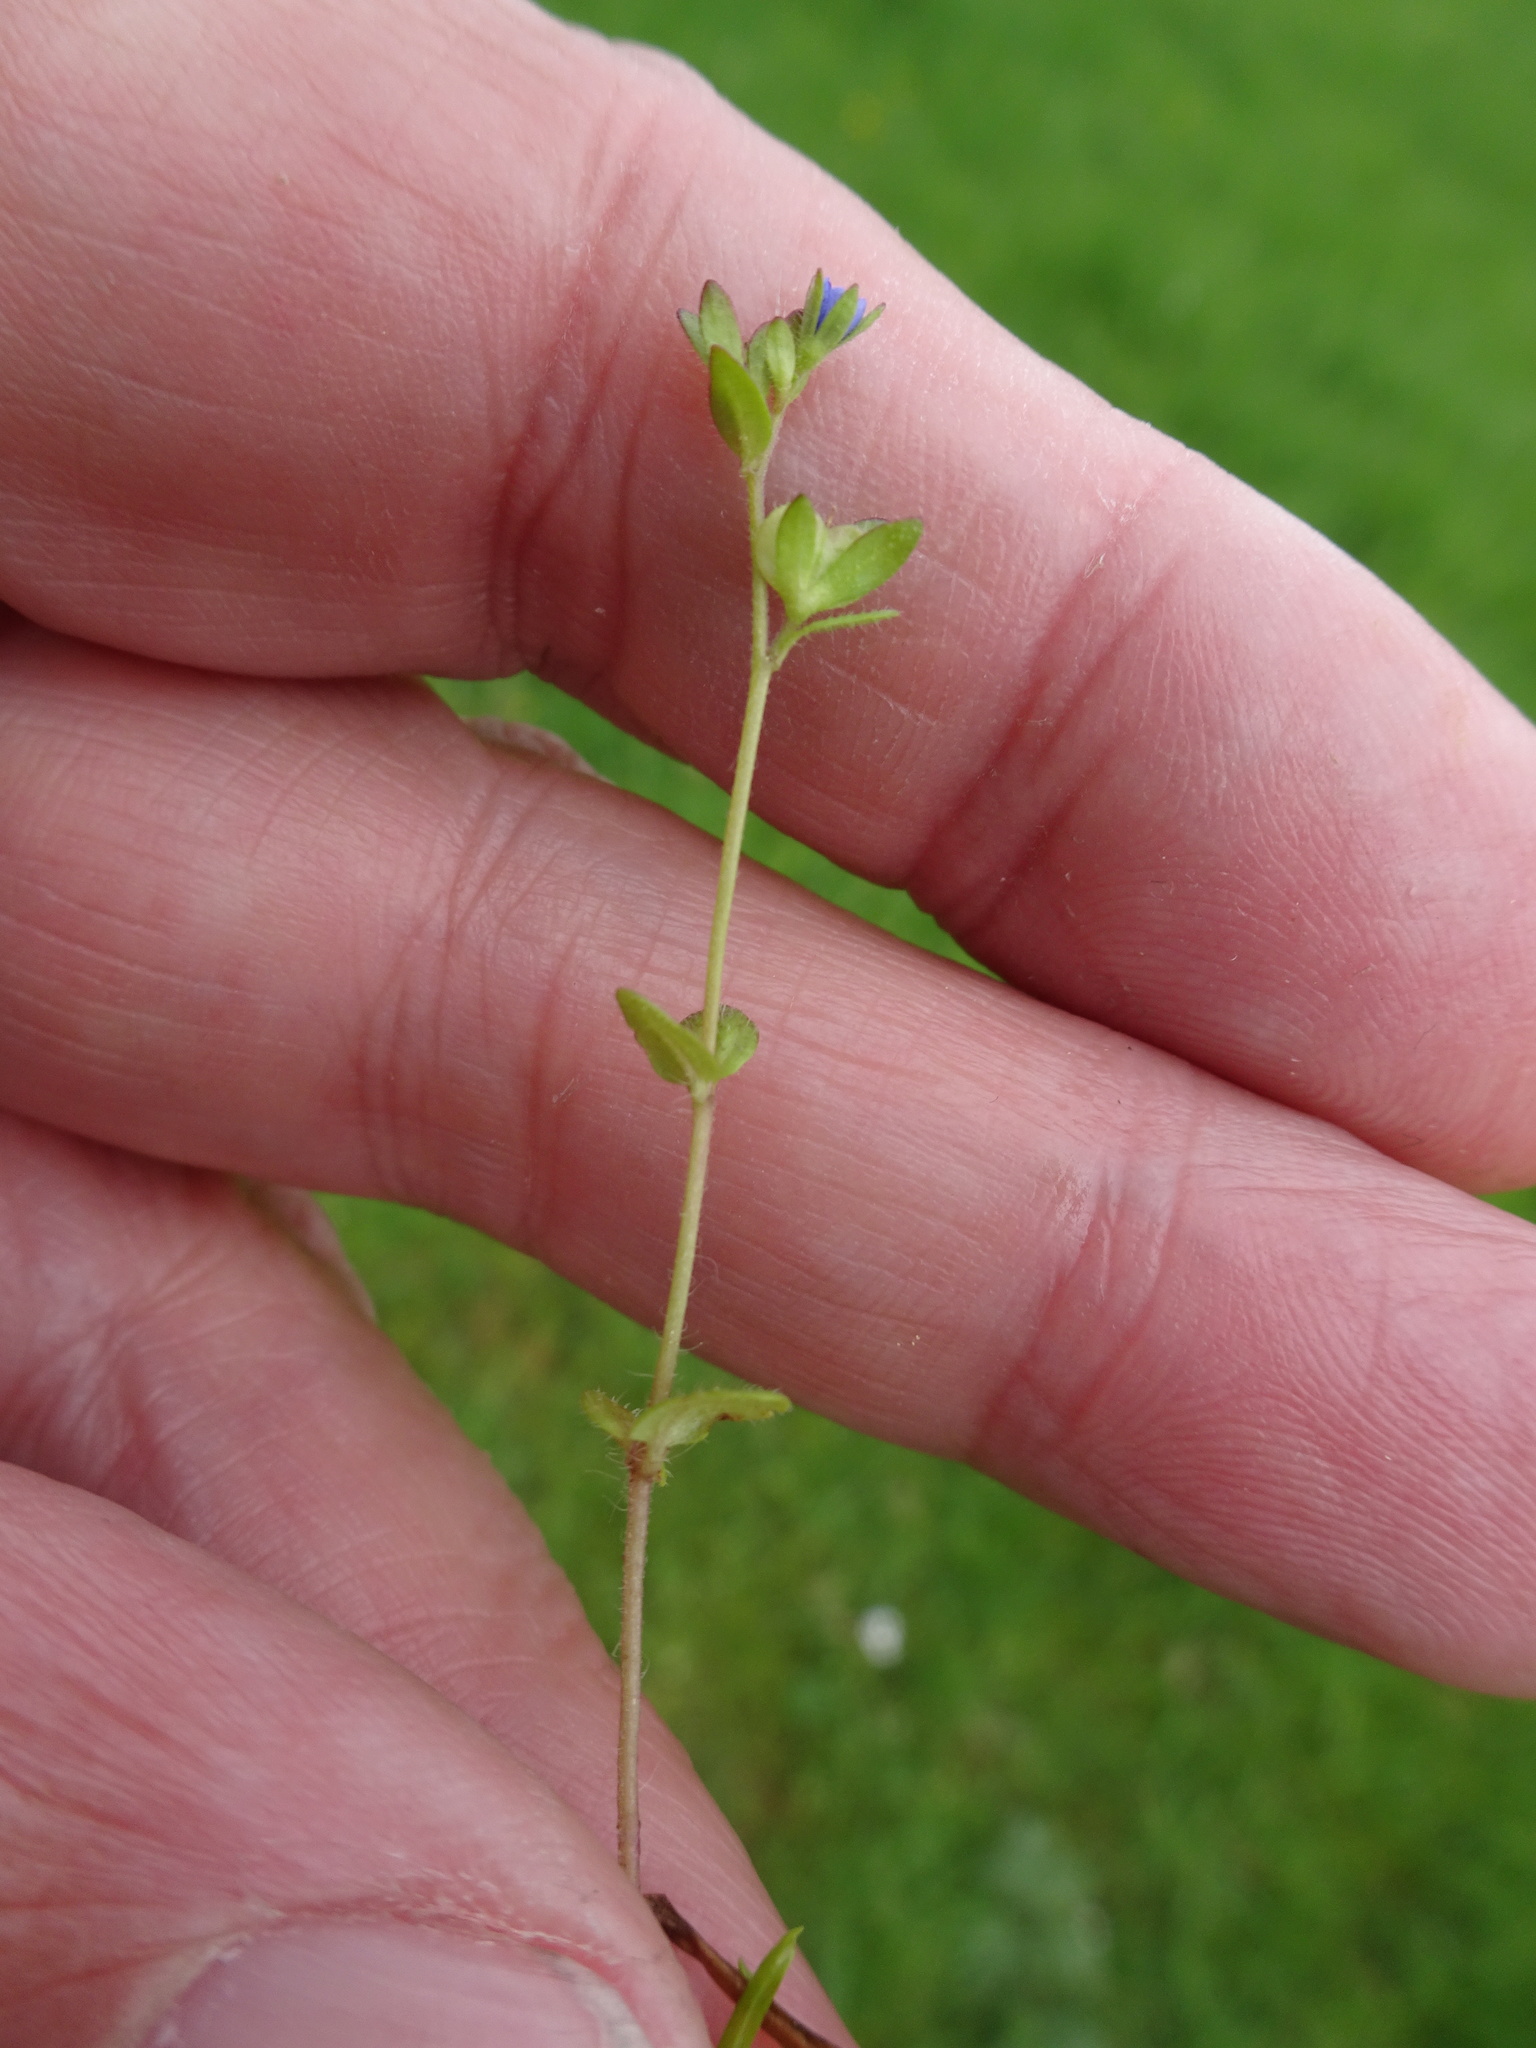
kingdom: Plantae
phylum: Tracheophyta
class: Magnoliopsida
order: Lamiales
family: Plantaginaceae
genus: Veronica
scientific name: Veronica arvensis
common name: Corn speedwell
